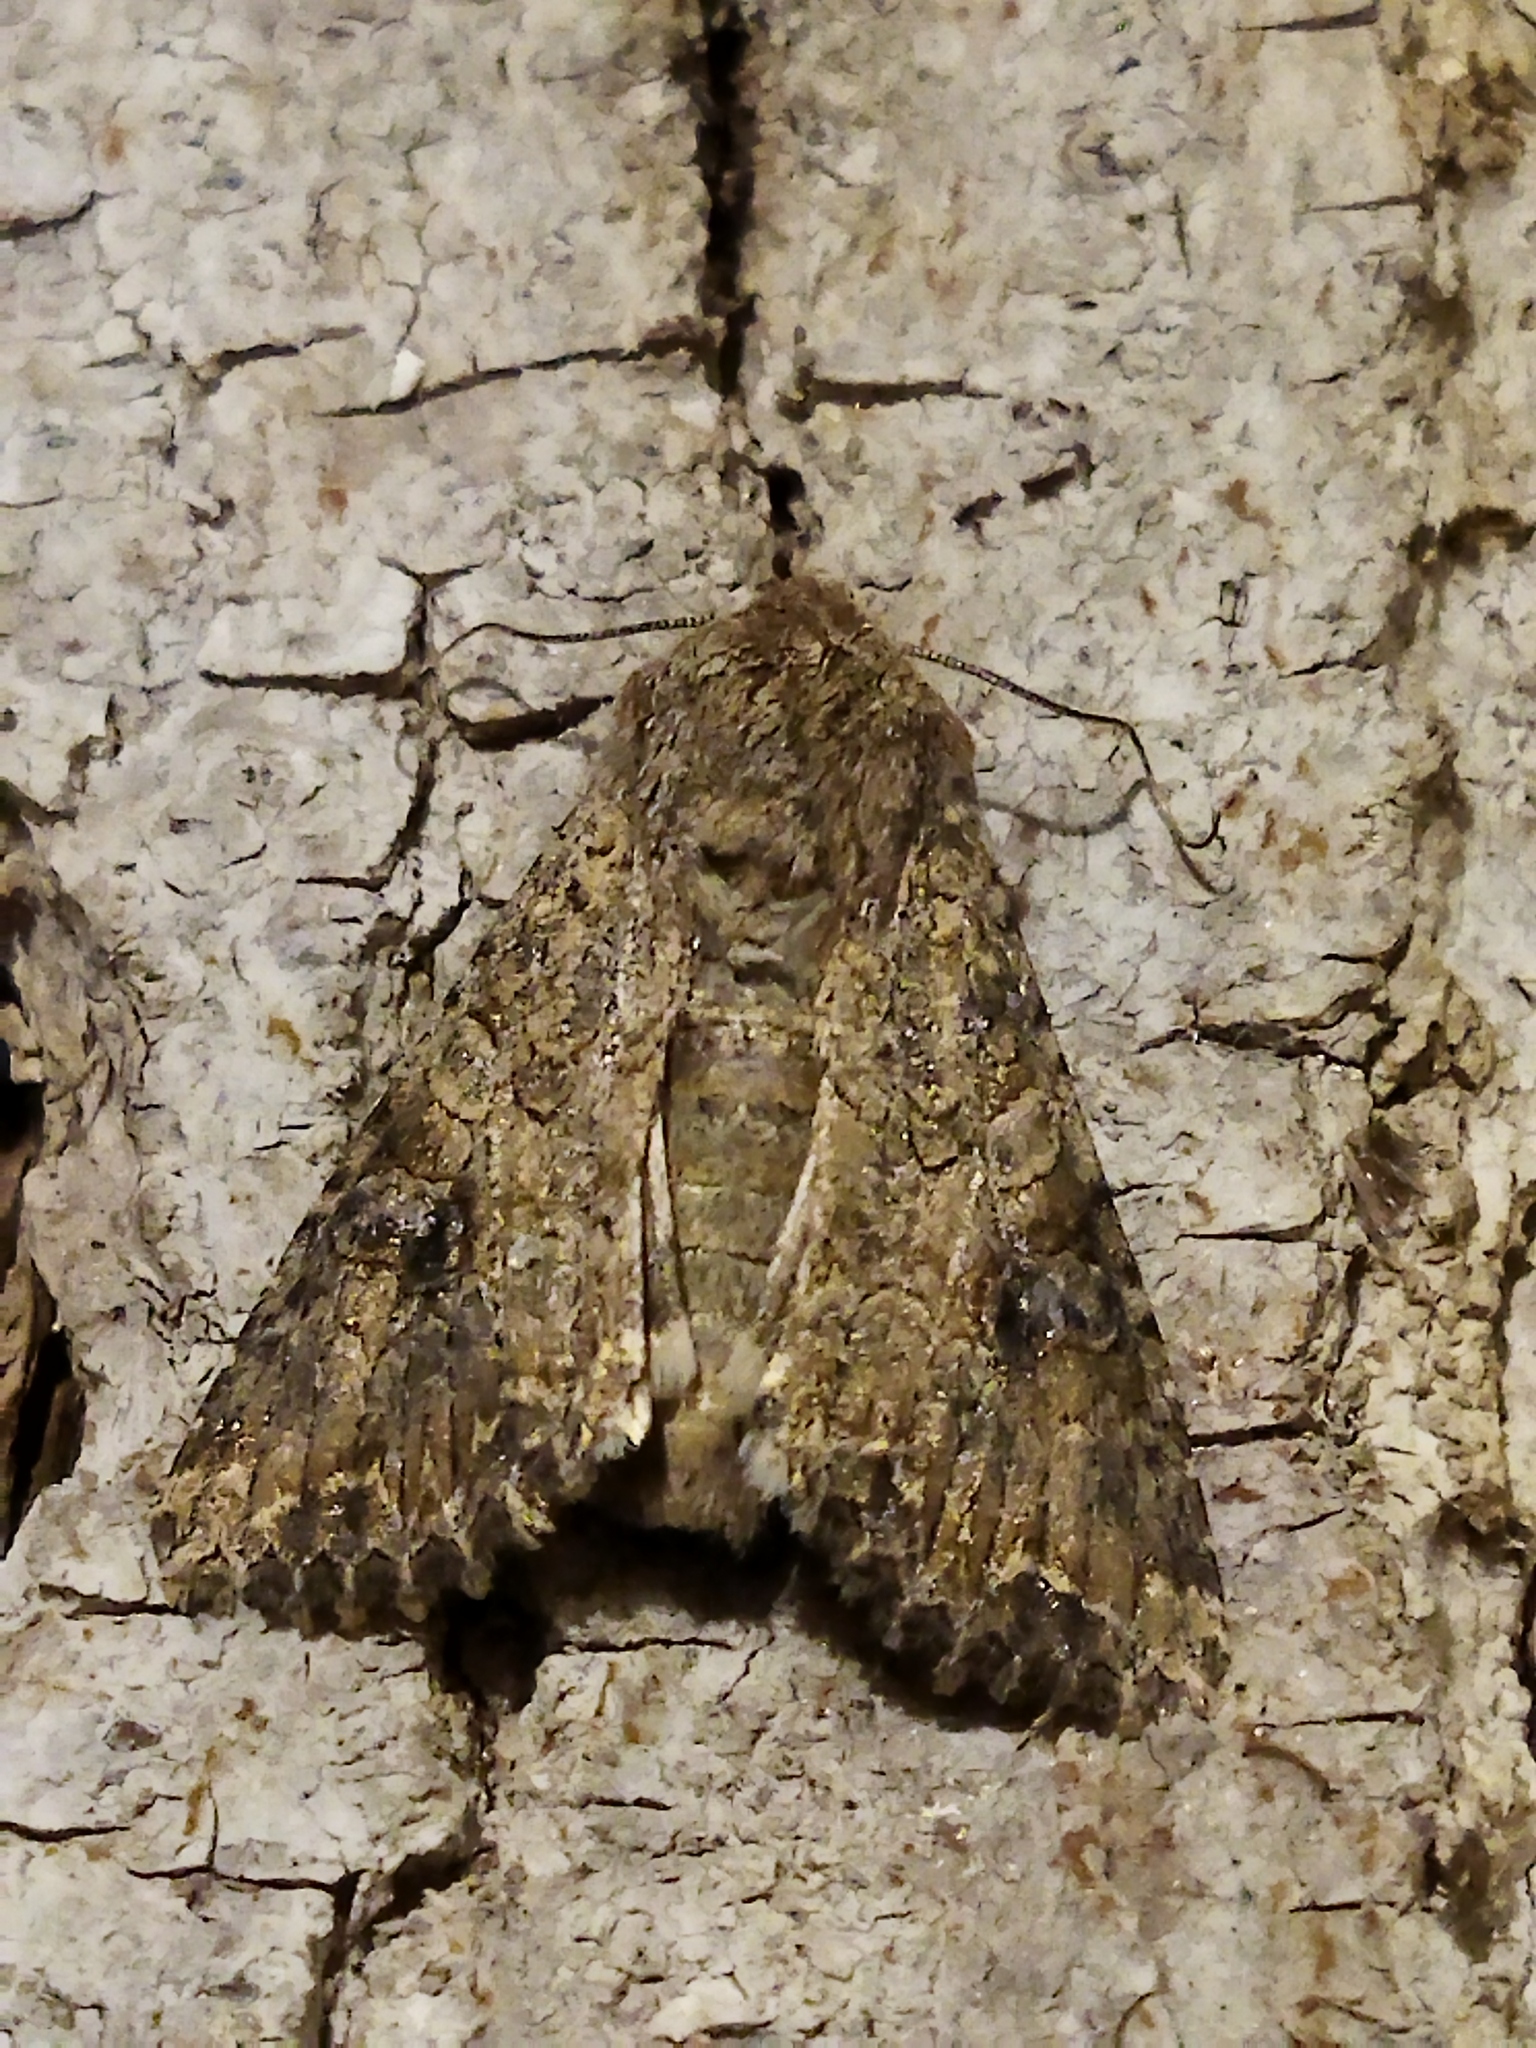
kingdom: Animalia
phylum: Arthropoda
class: Insecta
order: Lepidoptera
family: Noctuidae
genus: Anarta
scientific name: Anarta trifolii
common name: Clover cutworm moth
